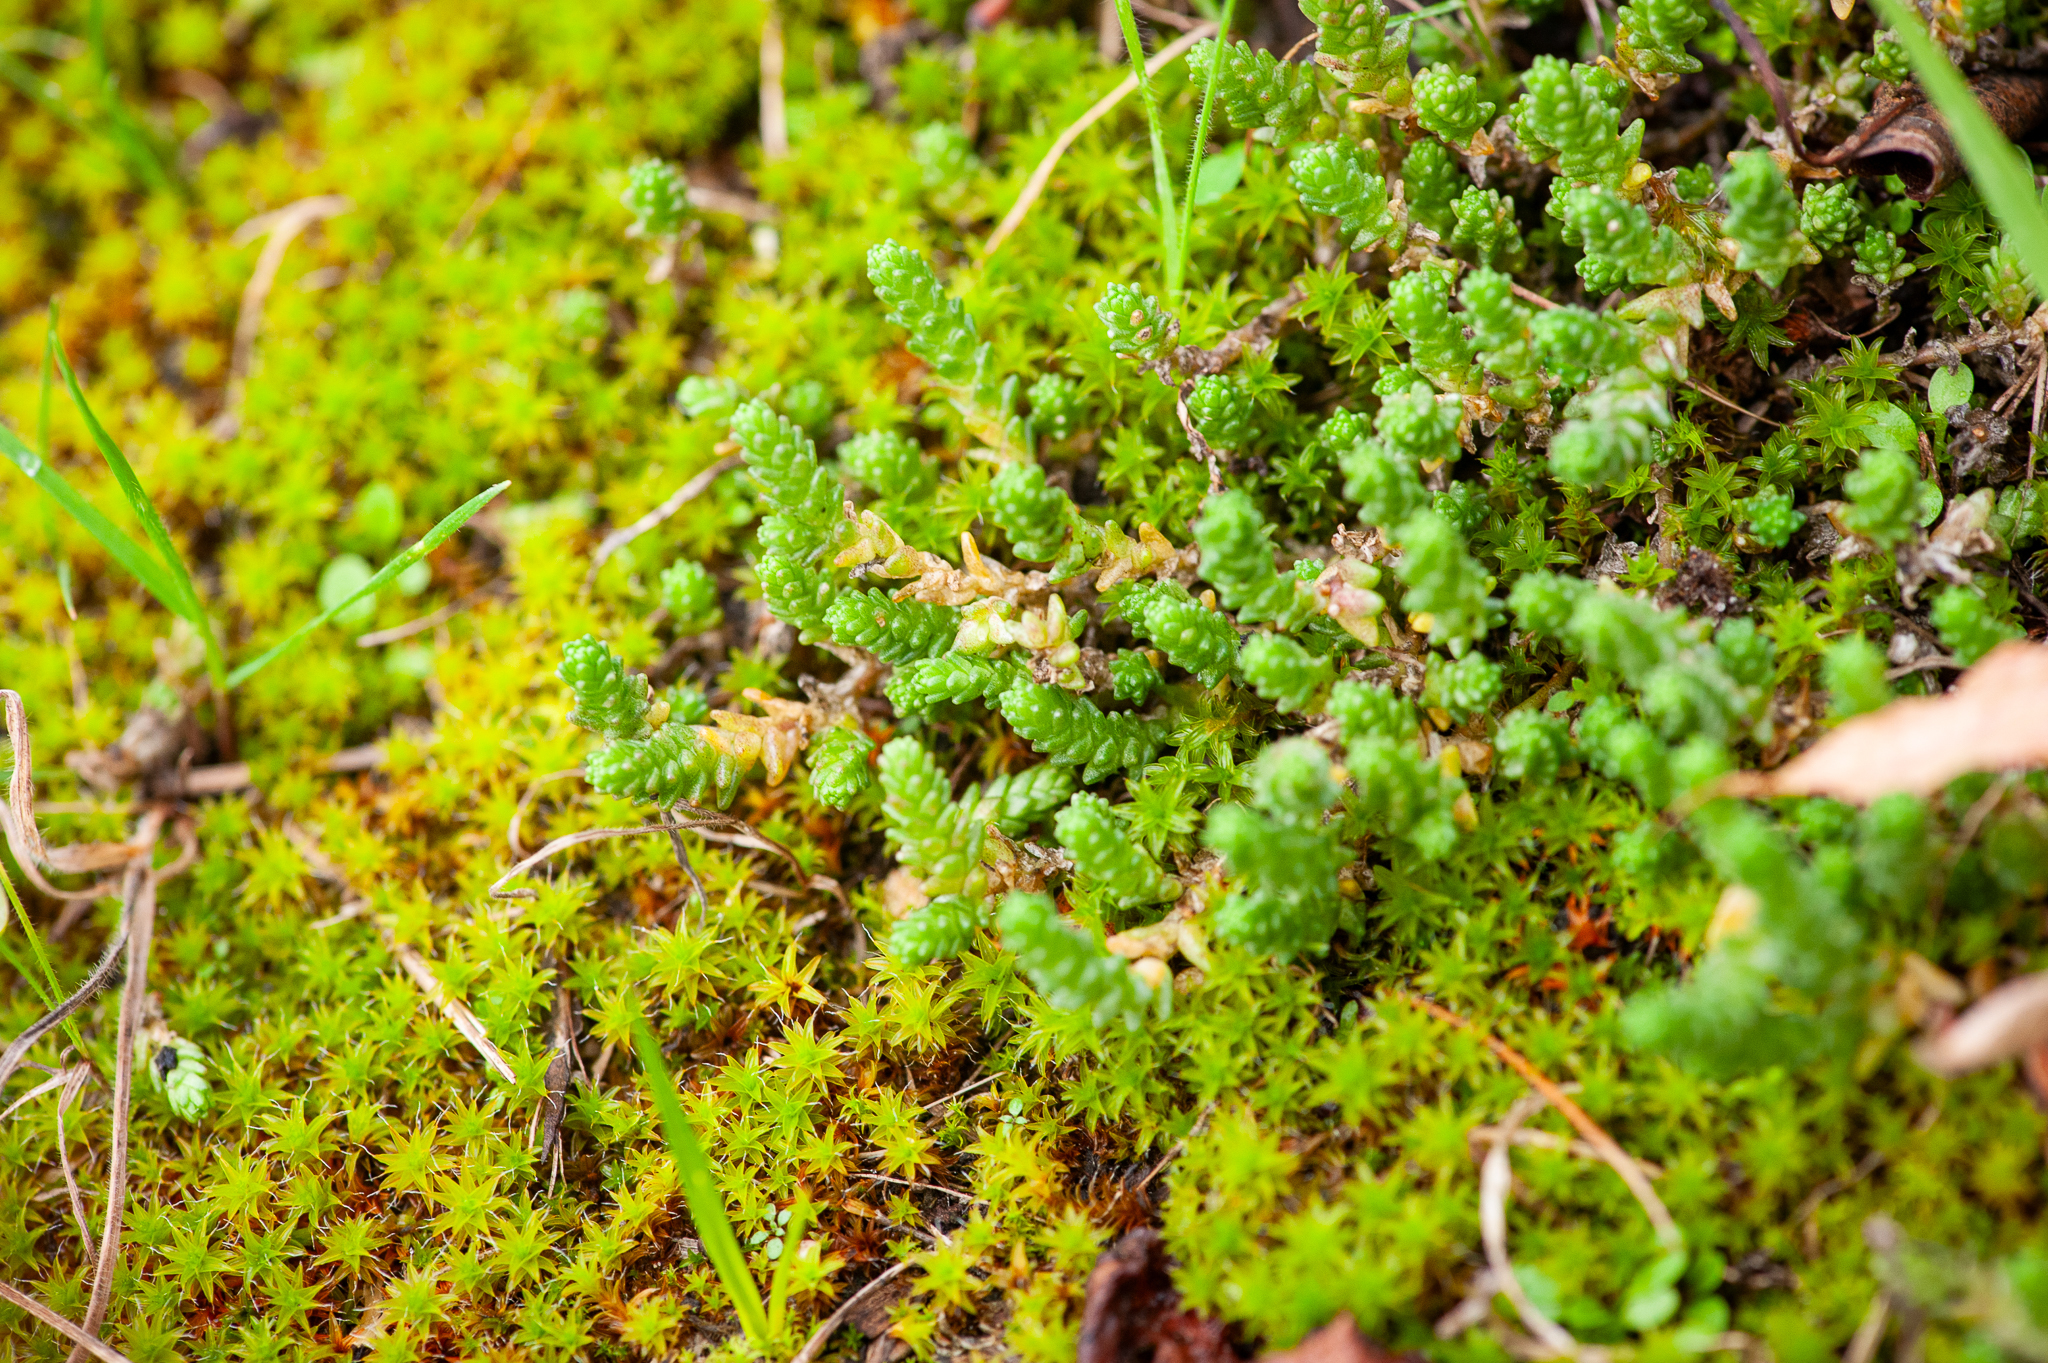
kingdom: Plantae
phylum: Tracheophyta
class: Magnoliopsida
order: Saxifragales
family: Crassulaceae
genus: Sedum
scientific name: Sedum acre
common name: Biting stonecrop
